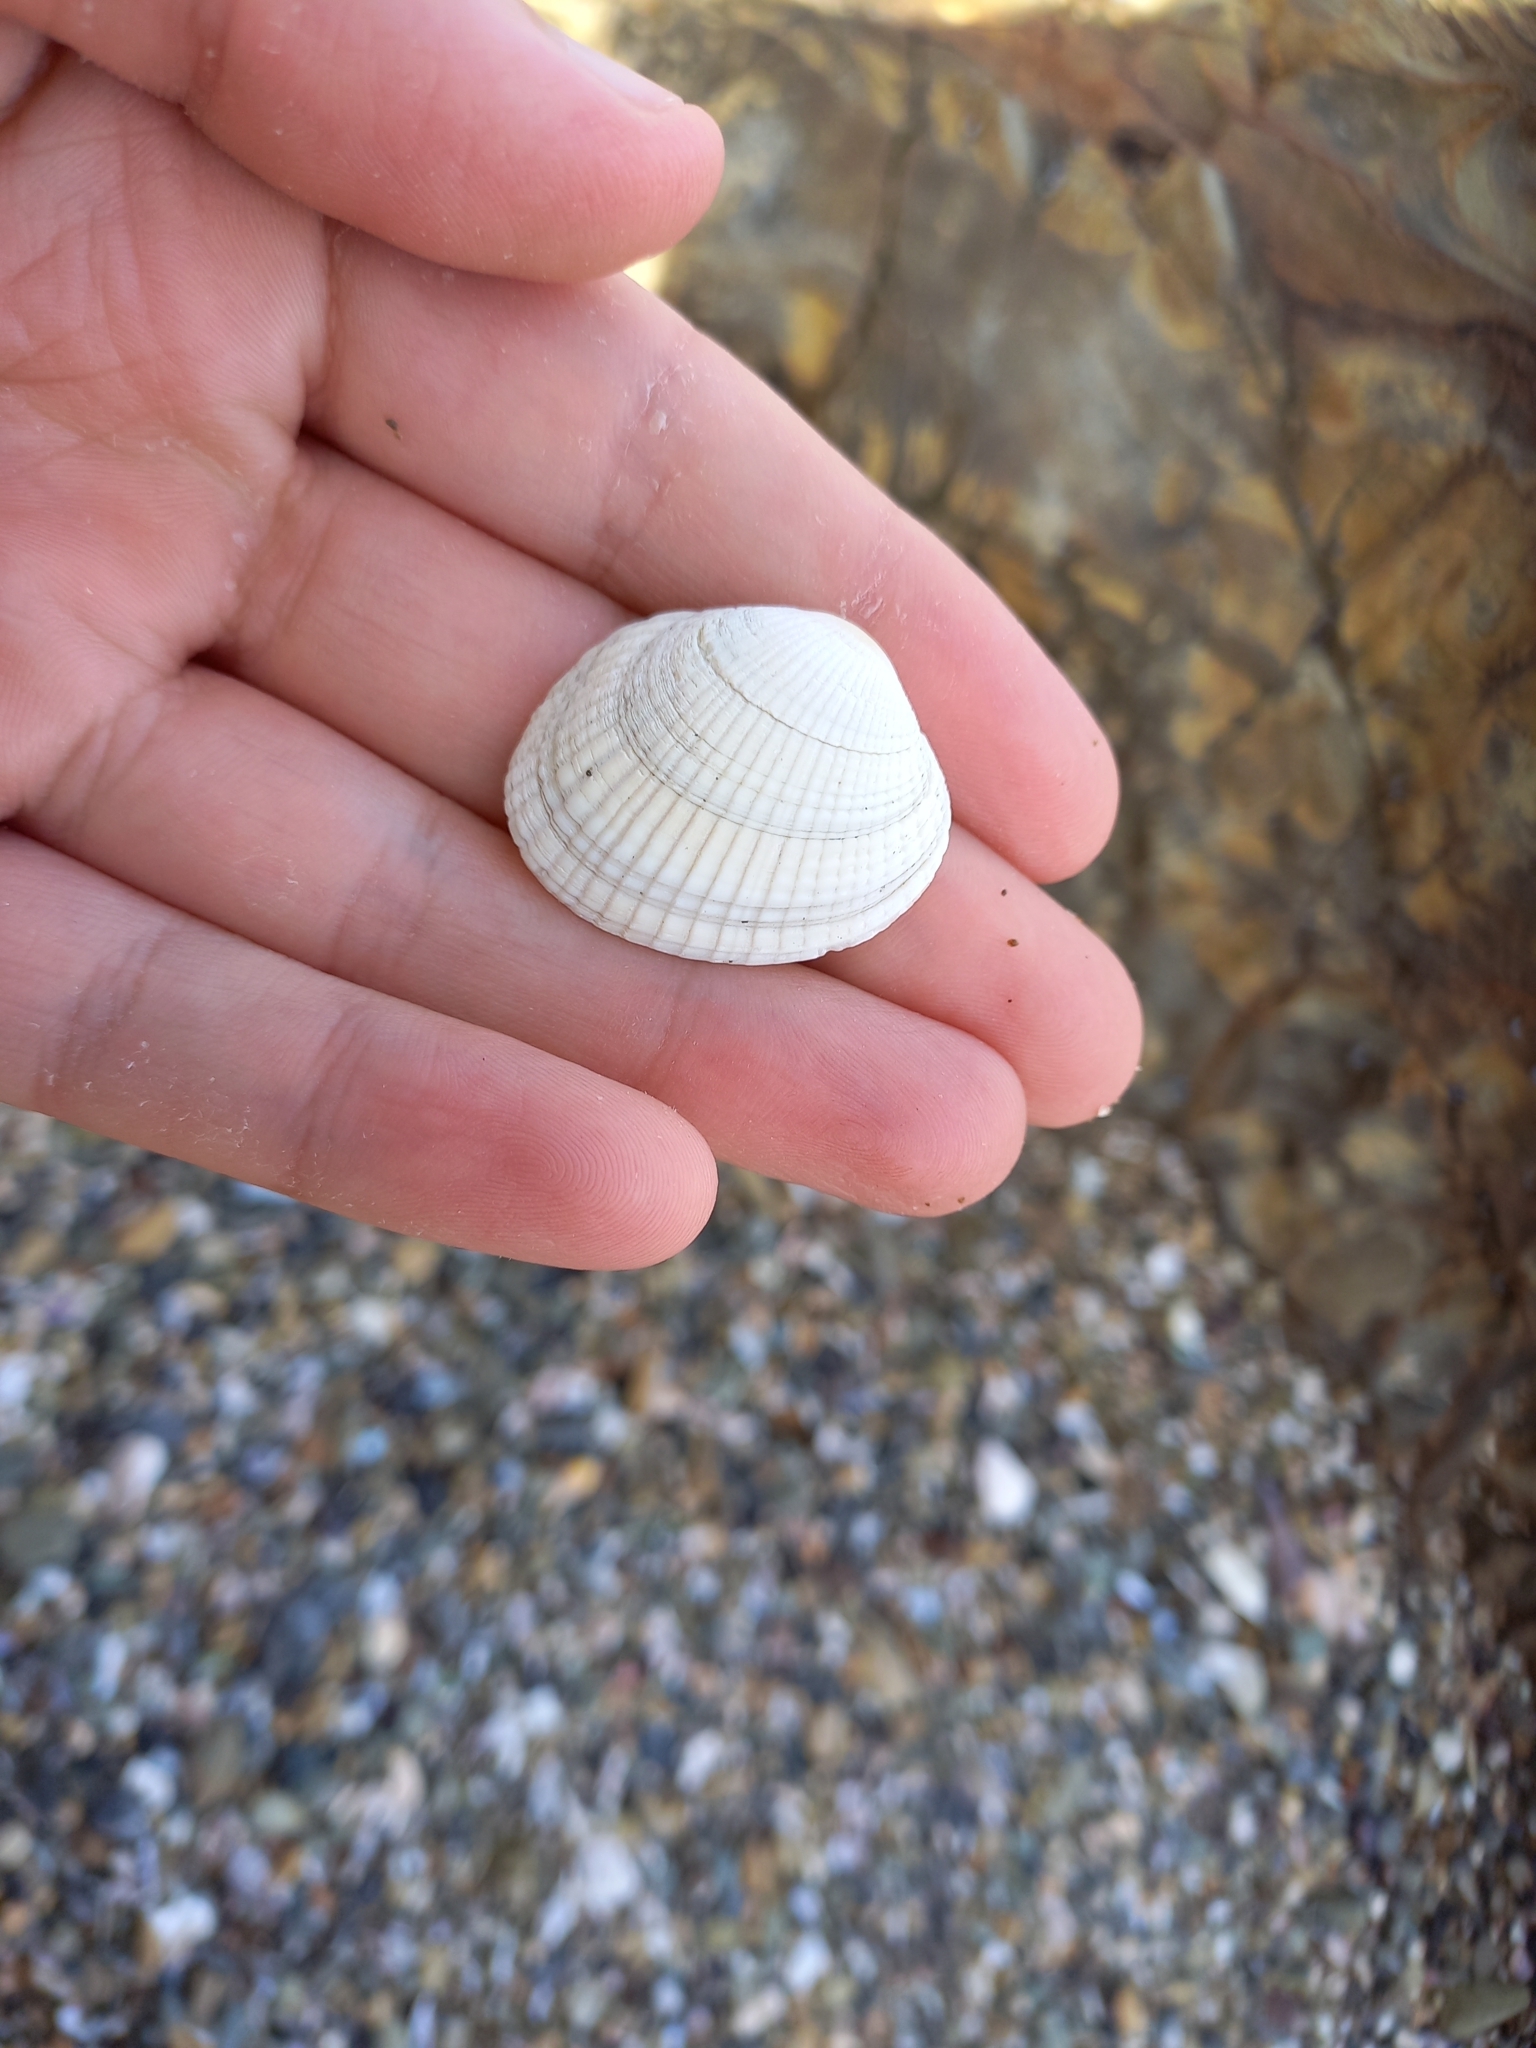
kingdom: Animalia
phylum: Mollusca
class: Bivalvia
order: Venerida
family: Veneridae
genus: Leukoma
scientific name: Leukoma crassicosta
